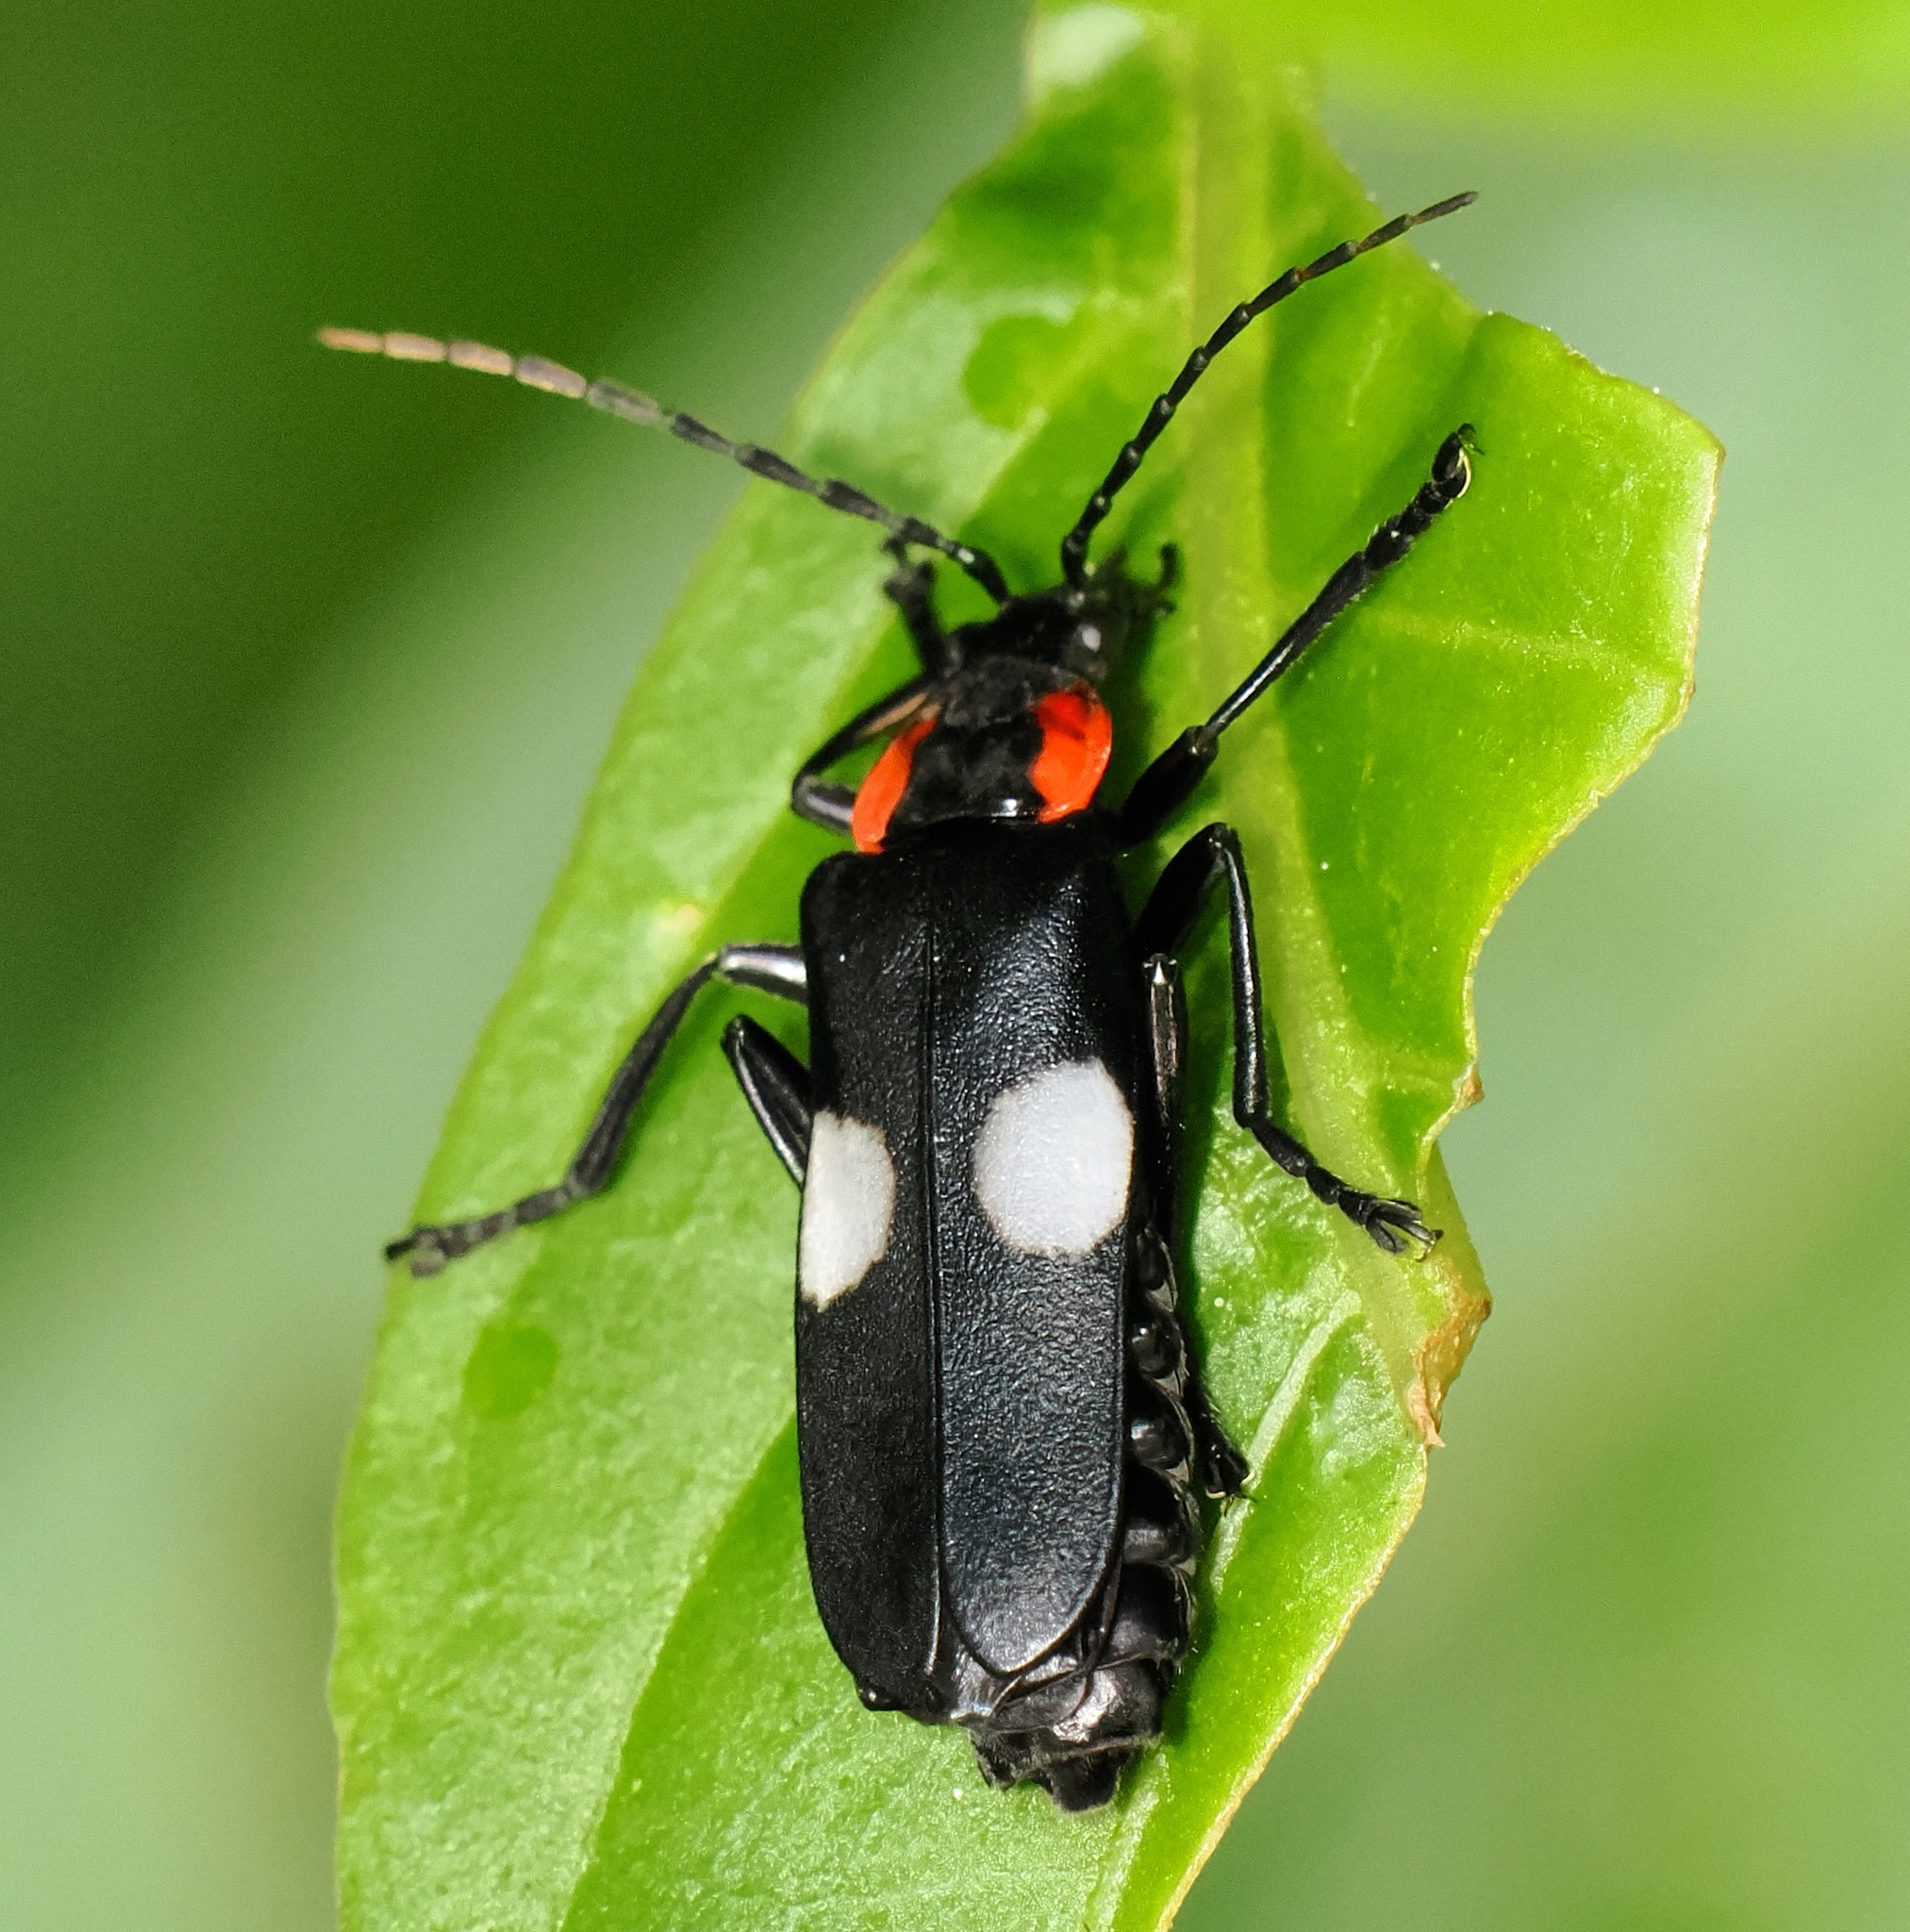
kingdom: Animalia
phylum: Arthropoda
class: Insecta
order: Coleoptera
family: Cantharidae
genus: Discodon
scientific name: Discodon vanini
